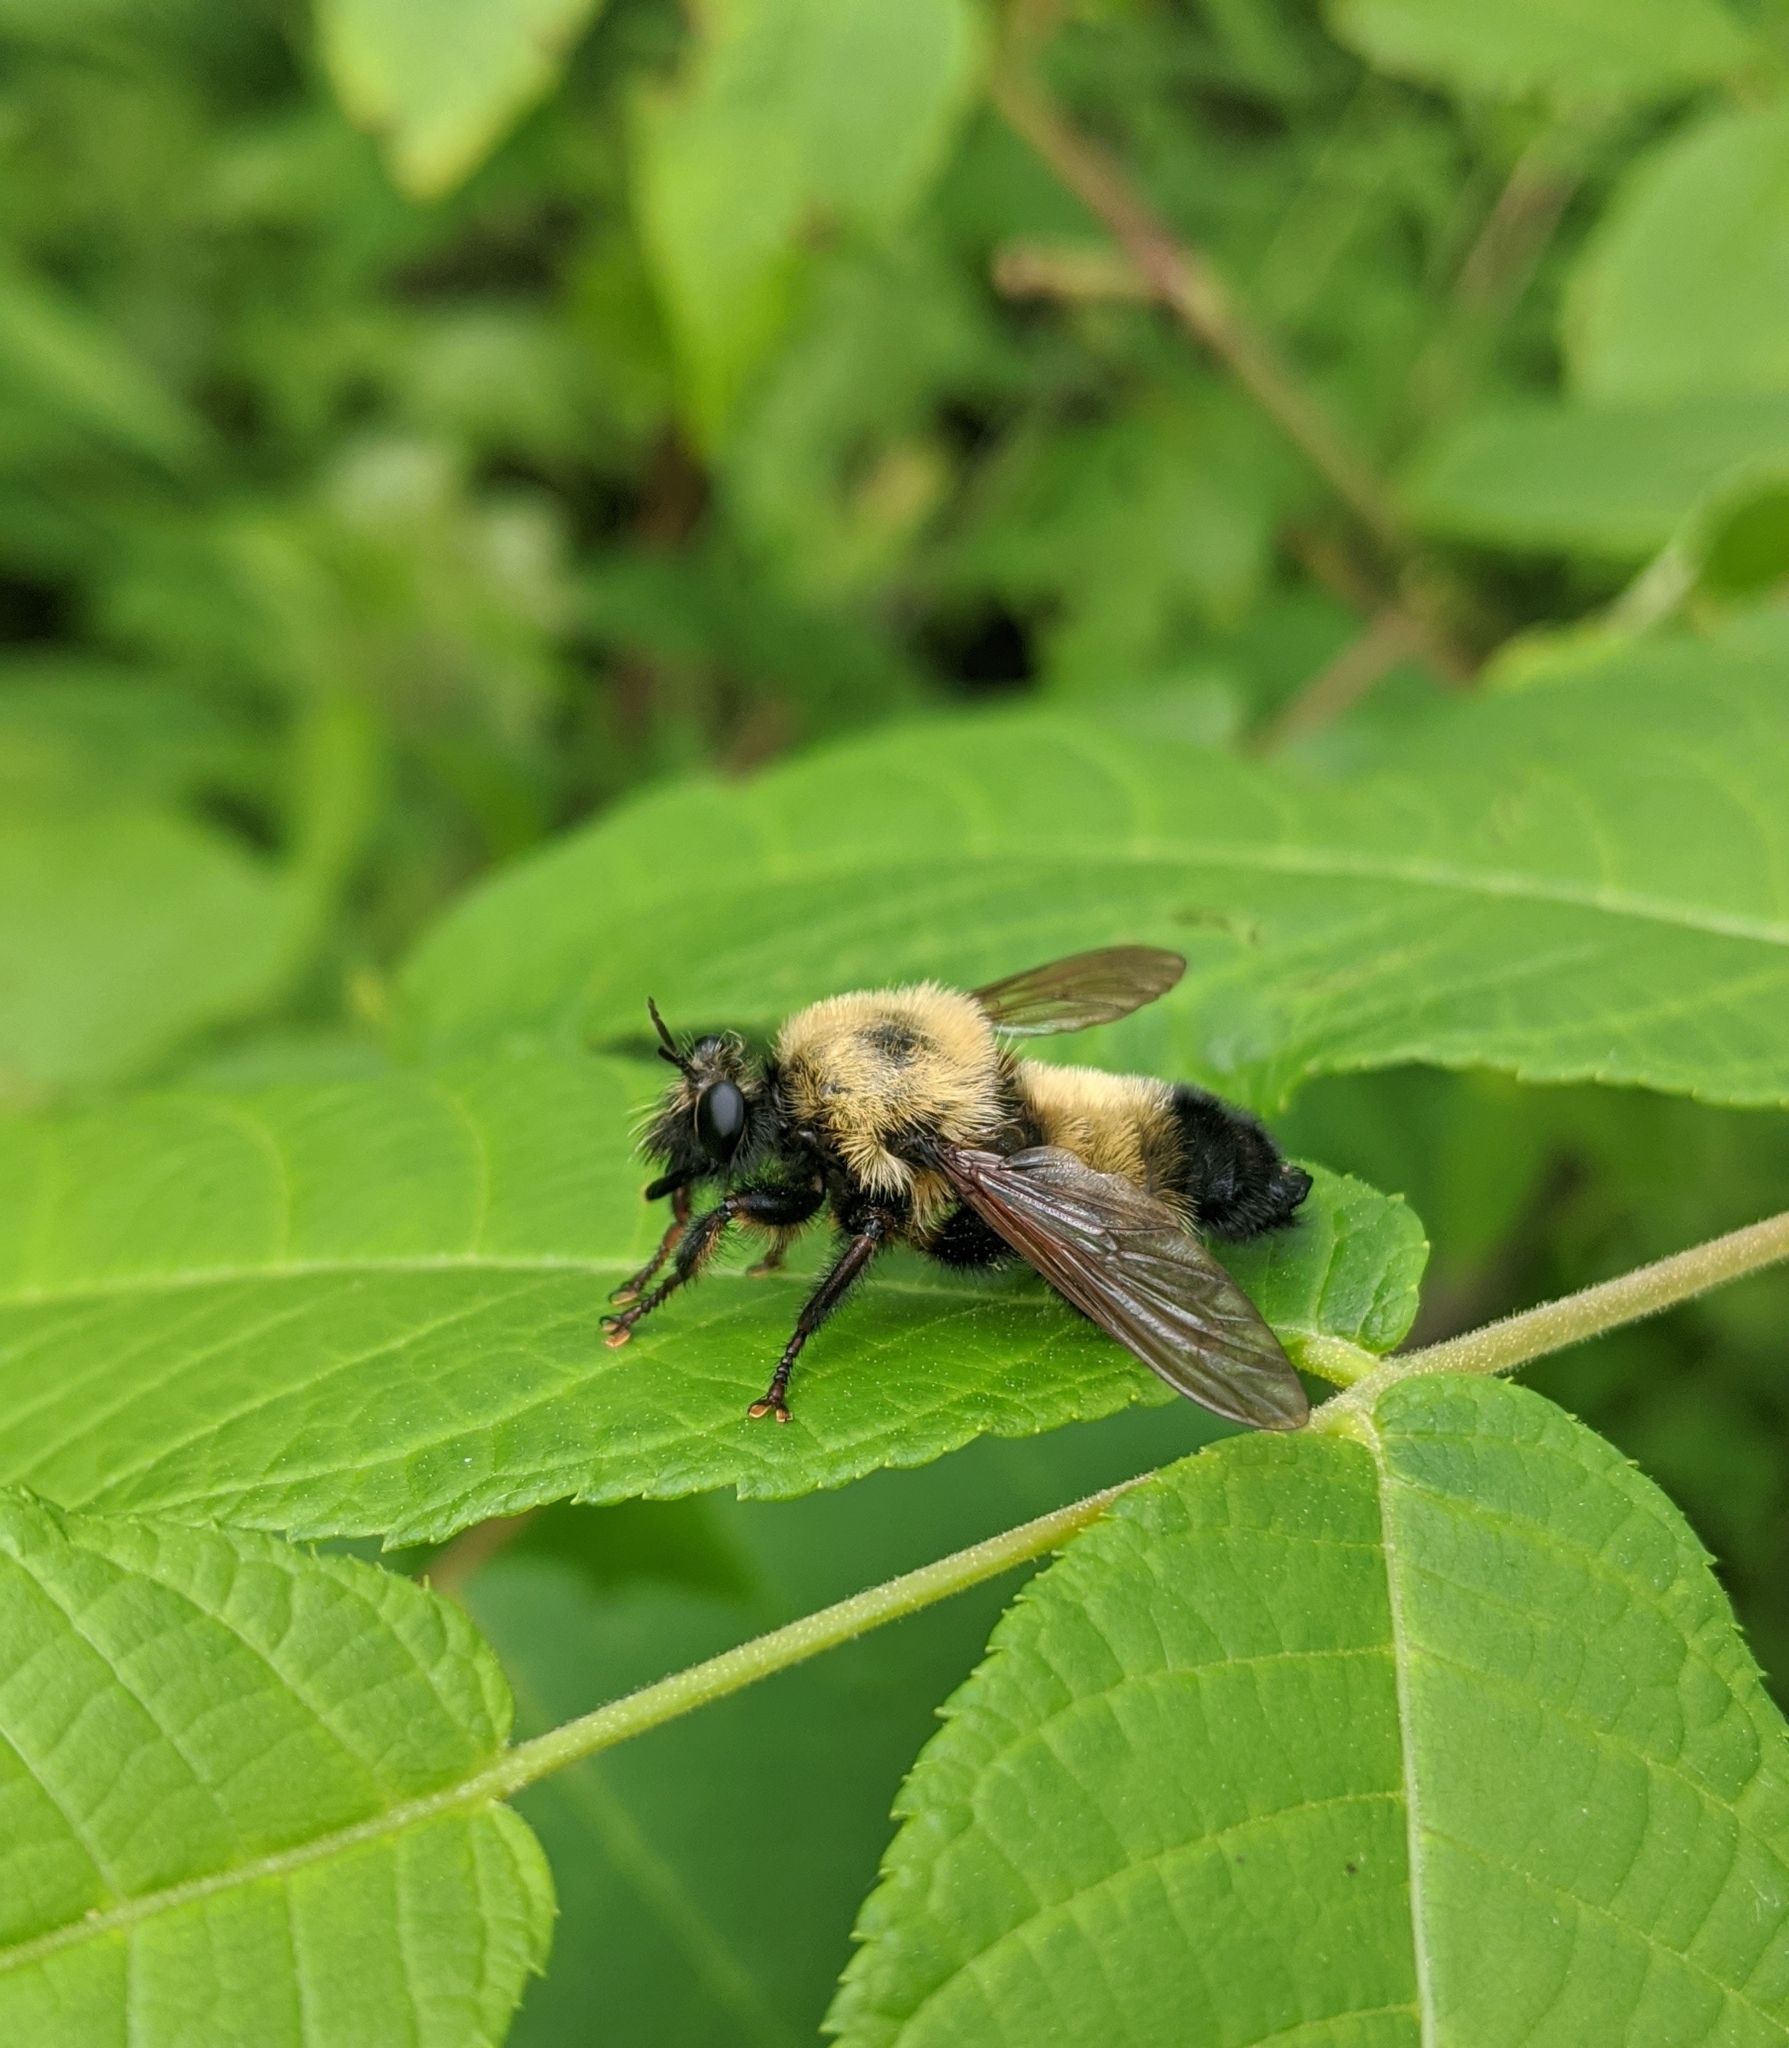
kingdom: Animalia
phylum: Arthropoda
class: Insecta
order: Diptera
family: Asilidae
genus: Laphria
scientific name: Laphria thoracica
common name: Bumble bee mimic robber fly
